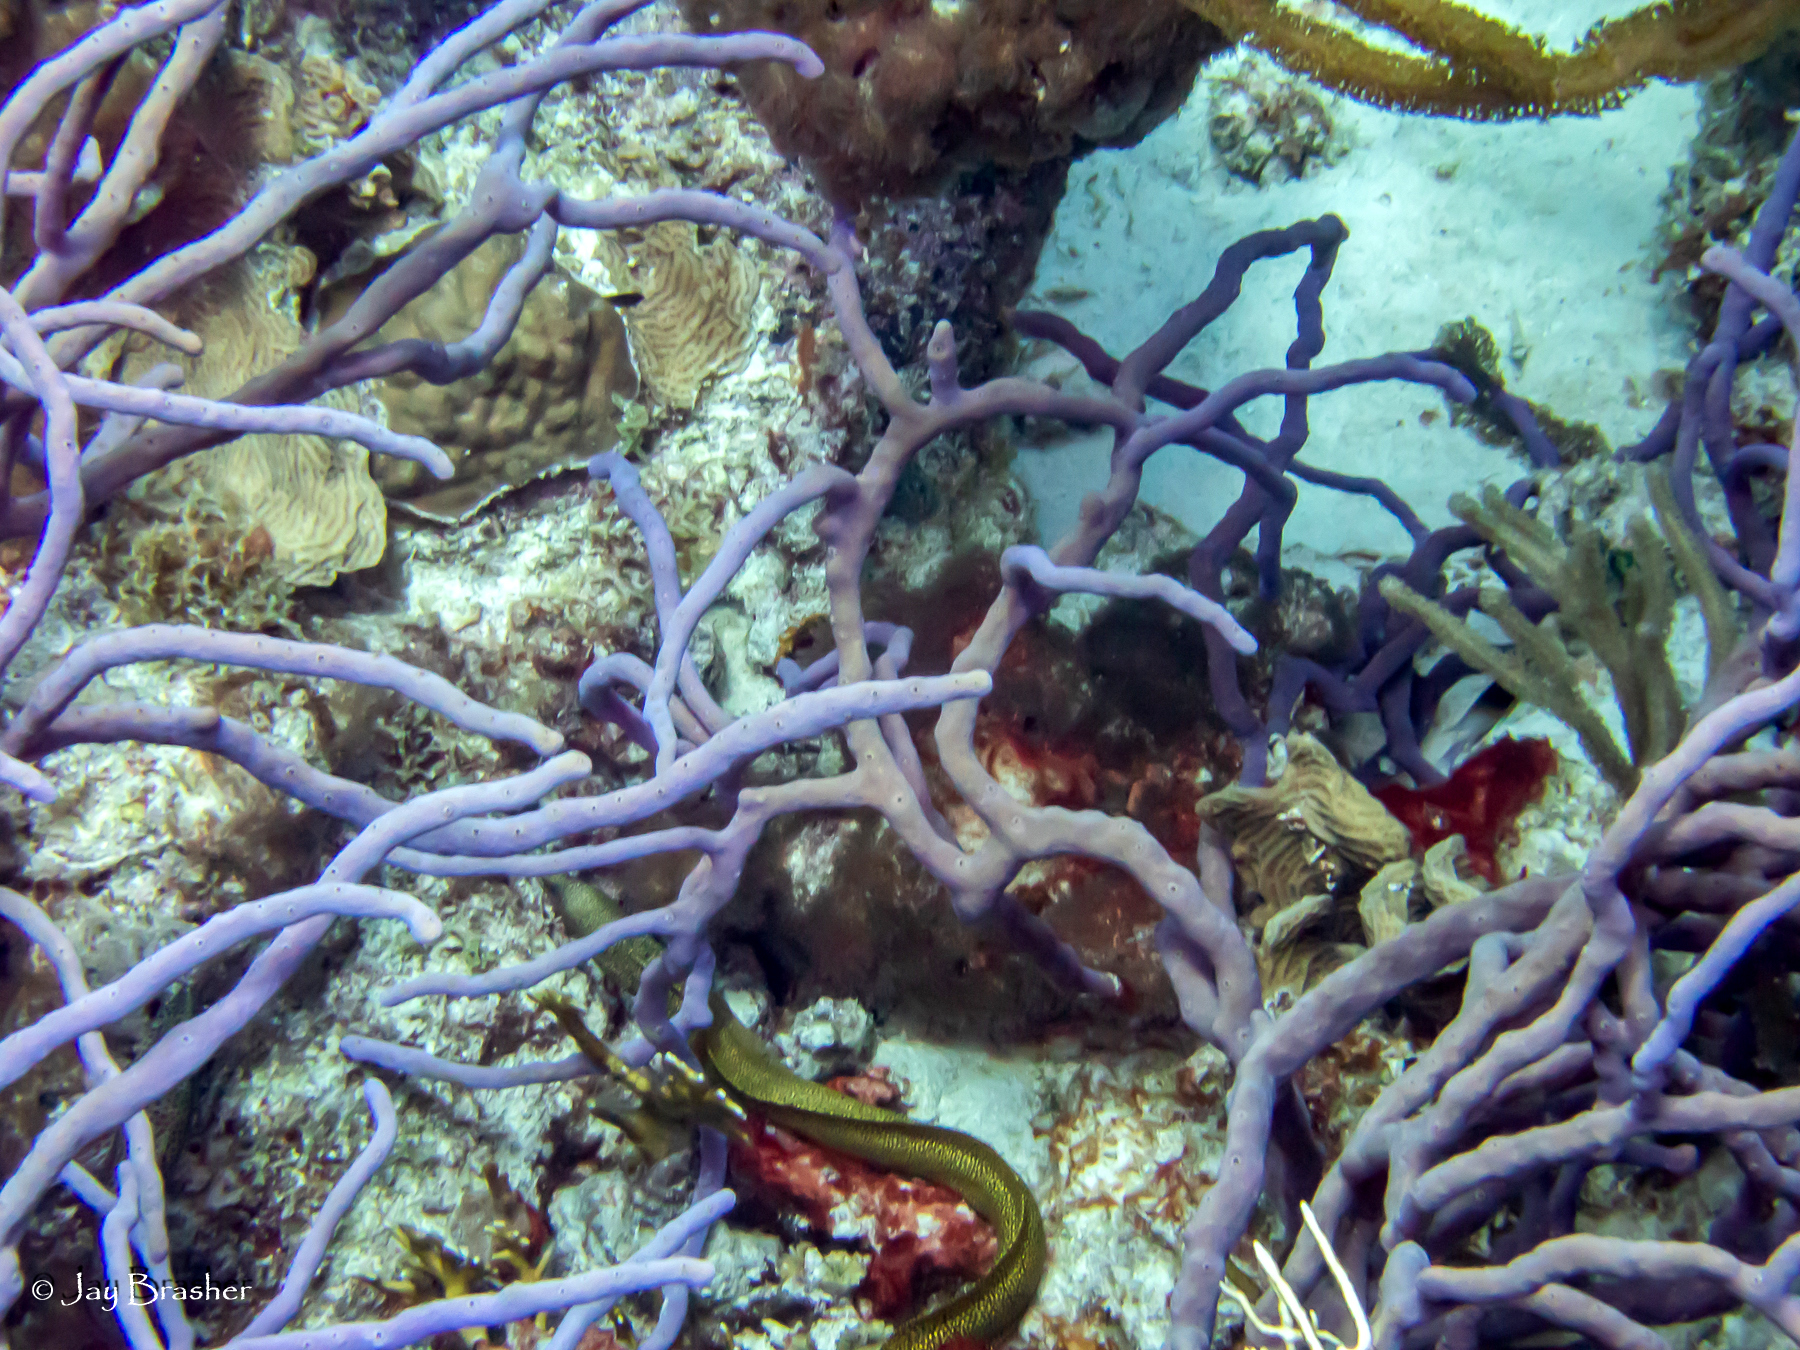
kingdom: Animalia
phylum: Porifera
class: Demospongiae
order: Verongiida
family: Aplysinidae
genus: Aplysina
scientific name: Aplysina cauliformis
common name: Branching candle sponge
